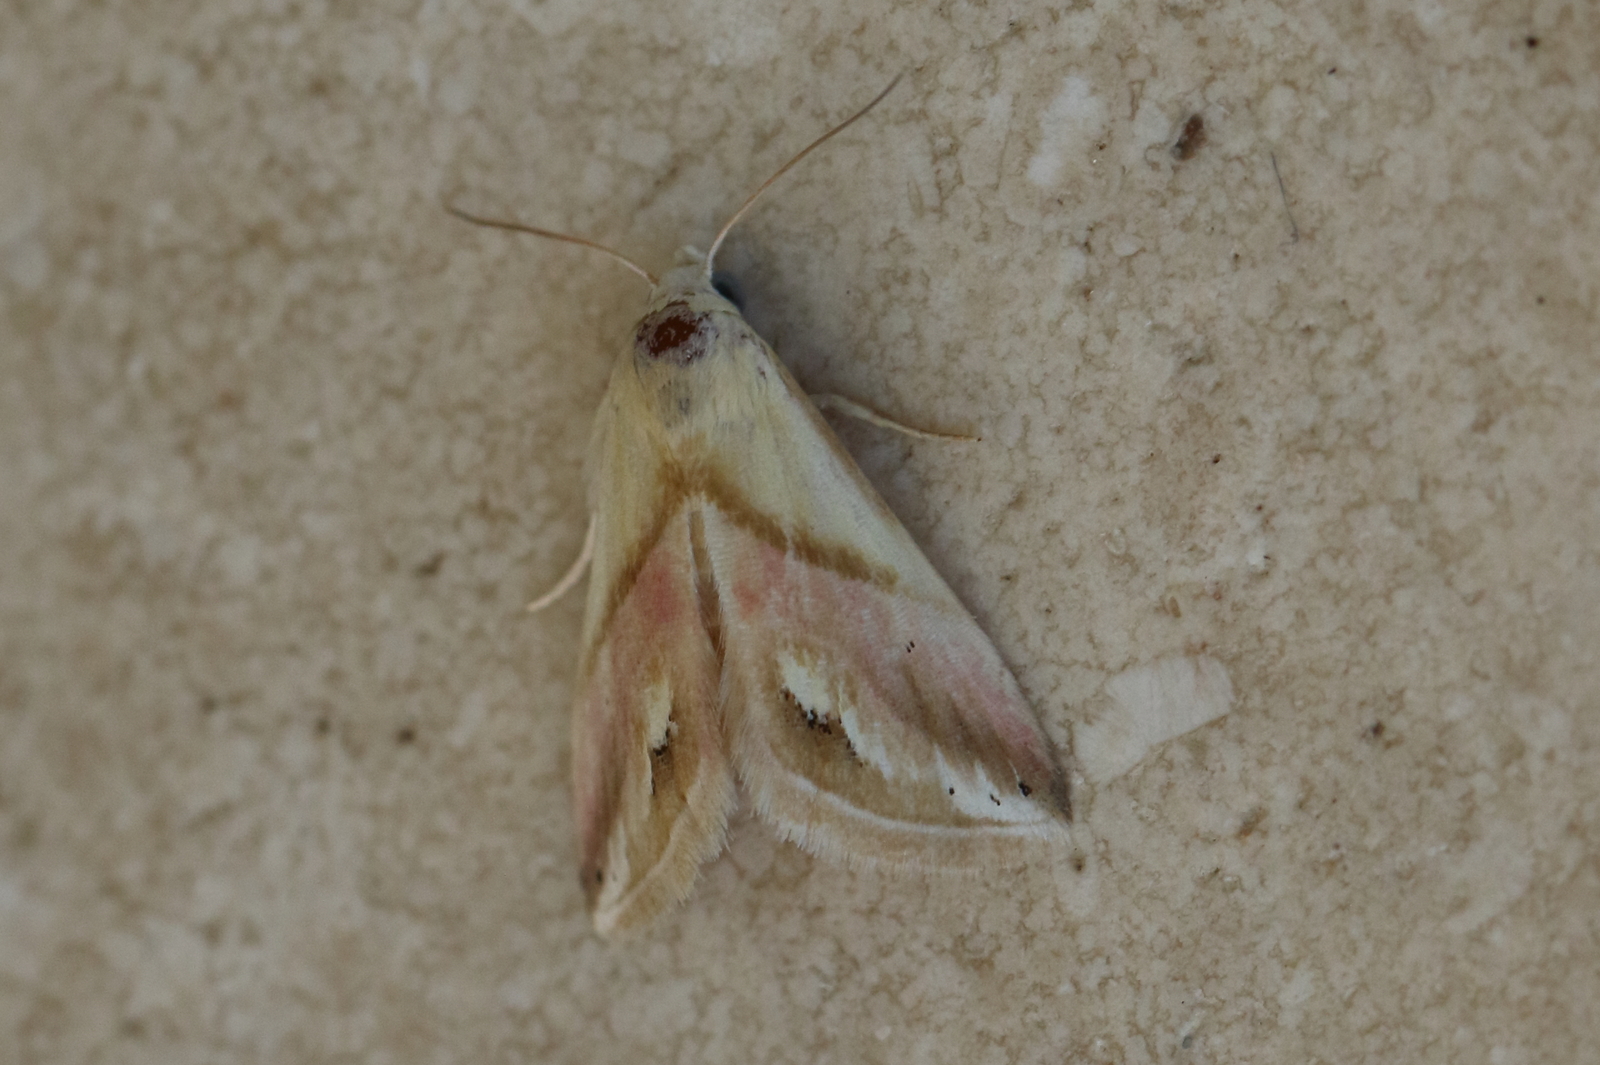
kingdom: Animalia
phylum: Arthropoda
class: Insecta
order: Lepidoptera
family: Noctuidae
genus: Eublemma
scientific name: Eublemma cochylioides
